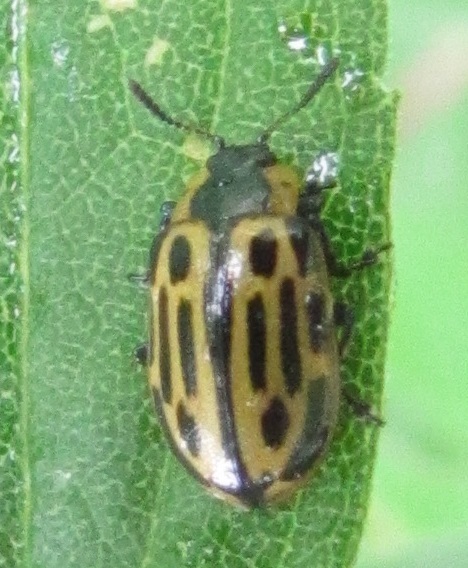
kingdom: Animalia
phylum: Arthropoda
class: Insecta
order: Coleoptera
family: Chrysomelidae
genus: Aethiopocassis
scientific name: Aethiopocassis scripta
